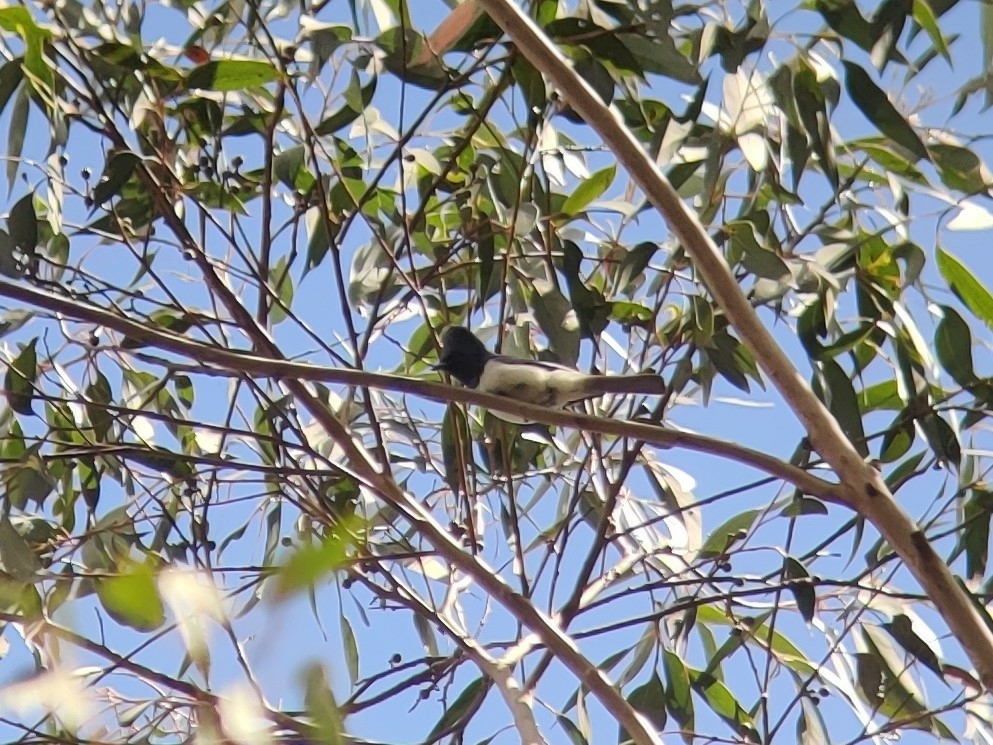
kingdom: Animalia
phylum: Chordata
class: Aves
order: Passeriformes
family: Monarchidae
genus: Myiagra
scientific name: Myiagra rubecula
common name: Leaden flycatcher
